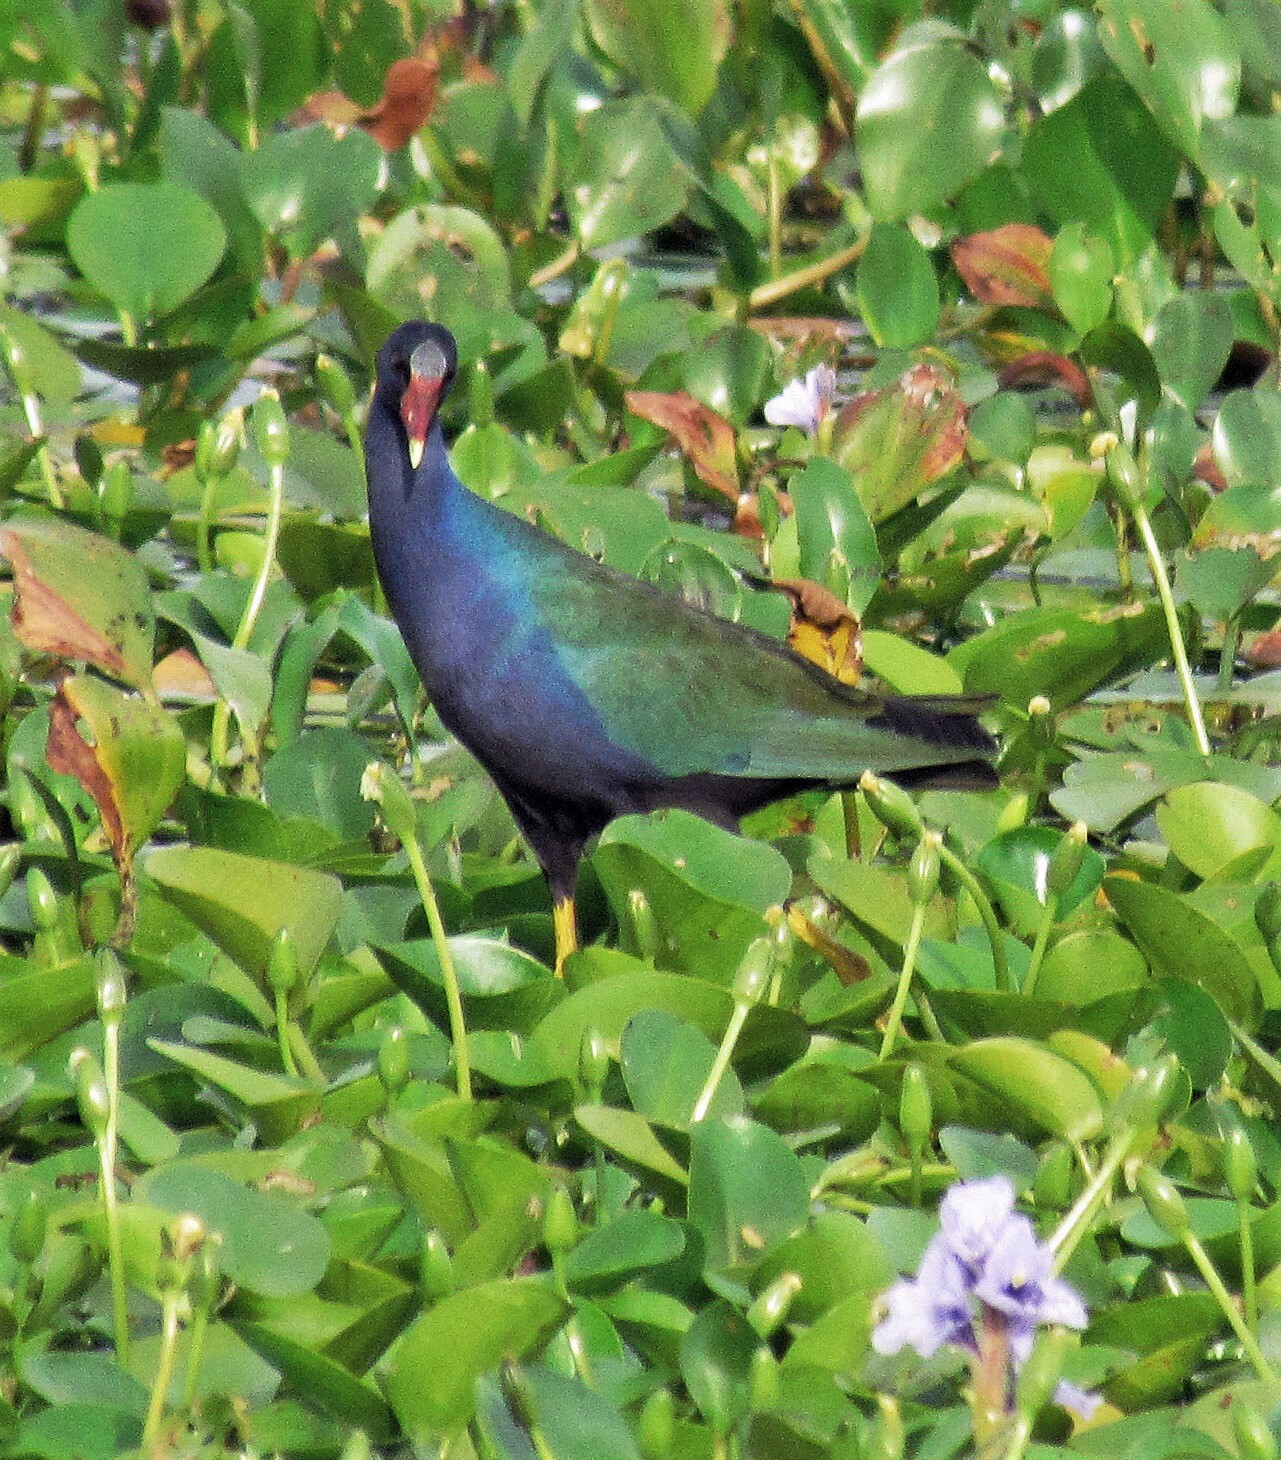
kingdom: Animalia
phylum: Chordata
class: Aves
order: Gruiformes
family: Rallidae
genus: Porphyrio
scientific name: Porphyrio martinica
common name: Purple gallinule
